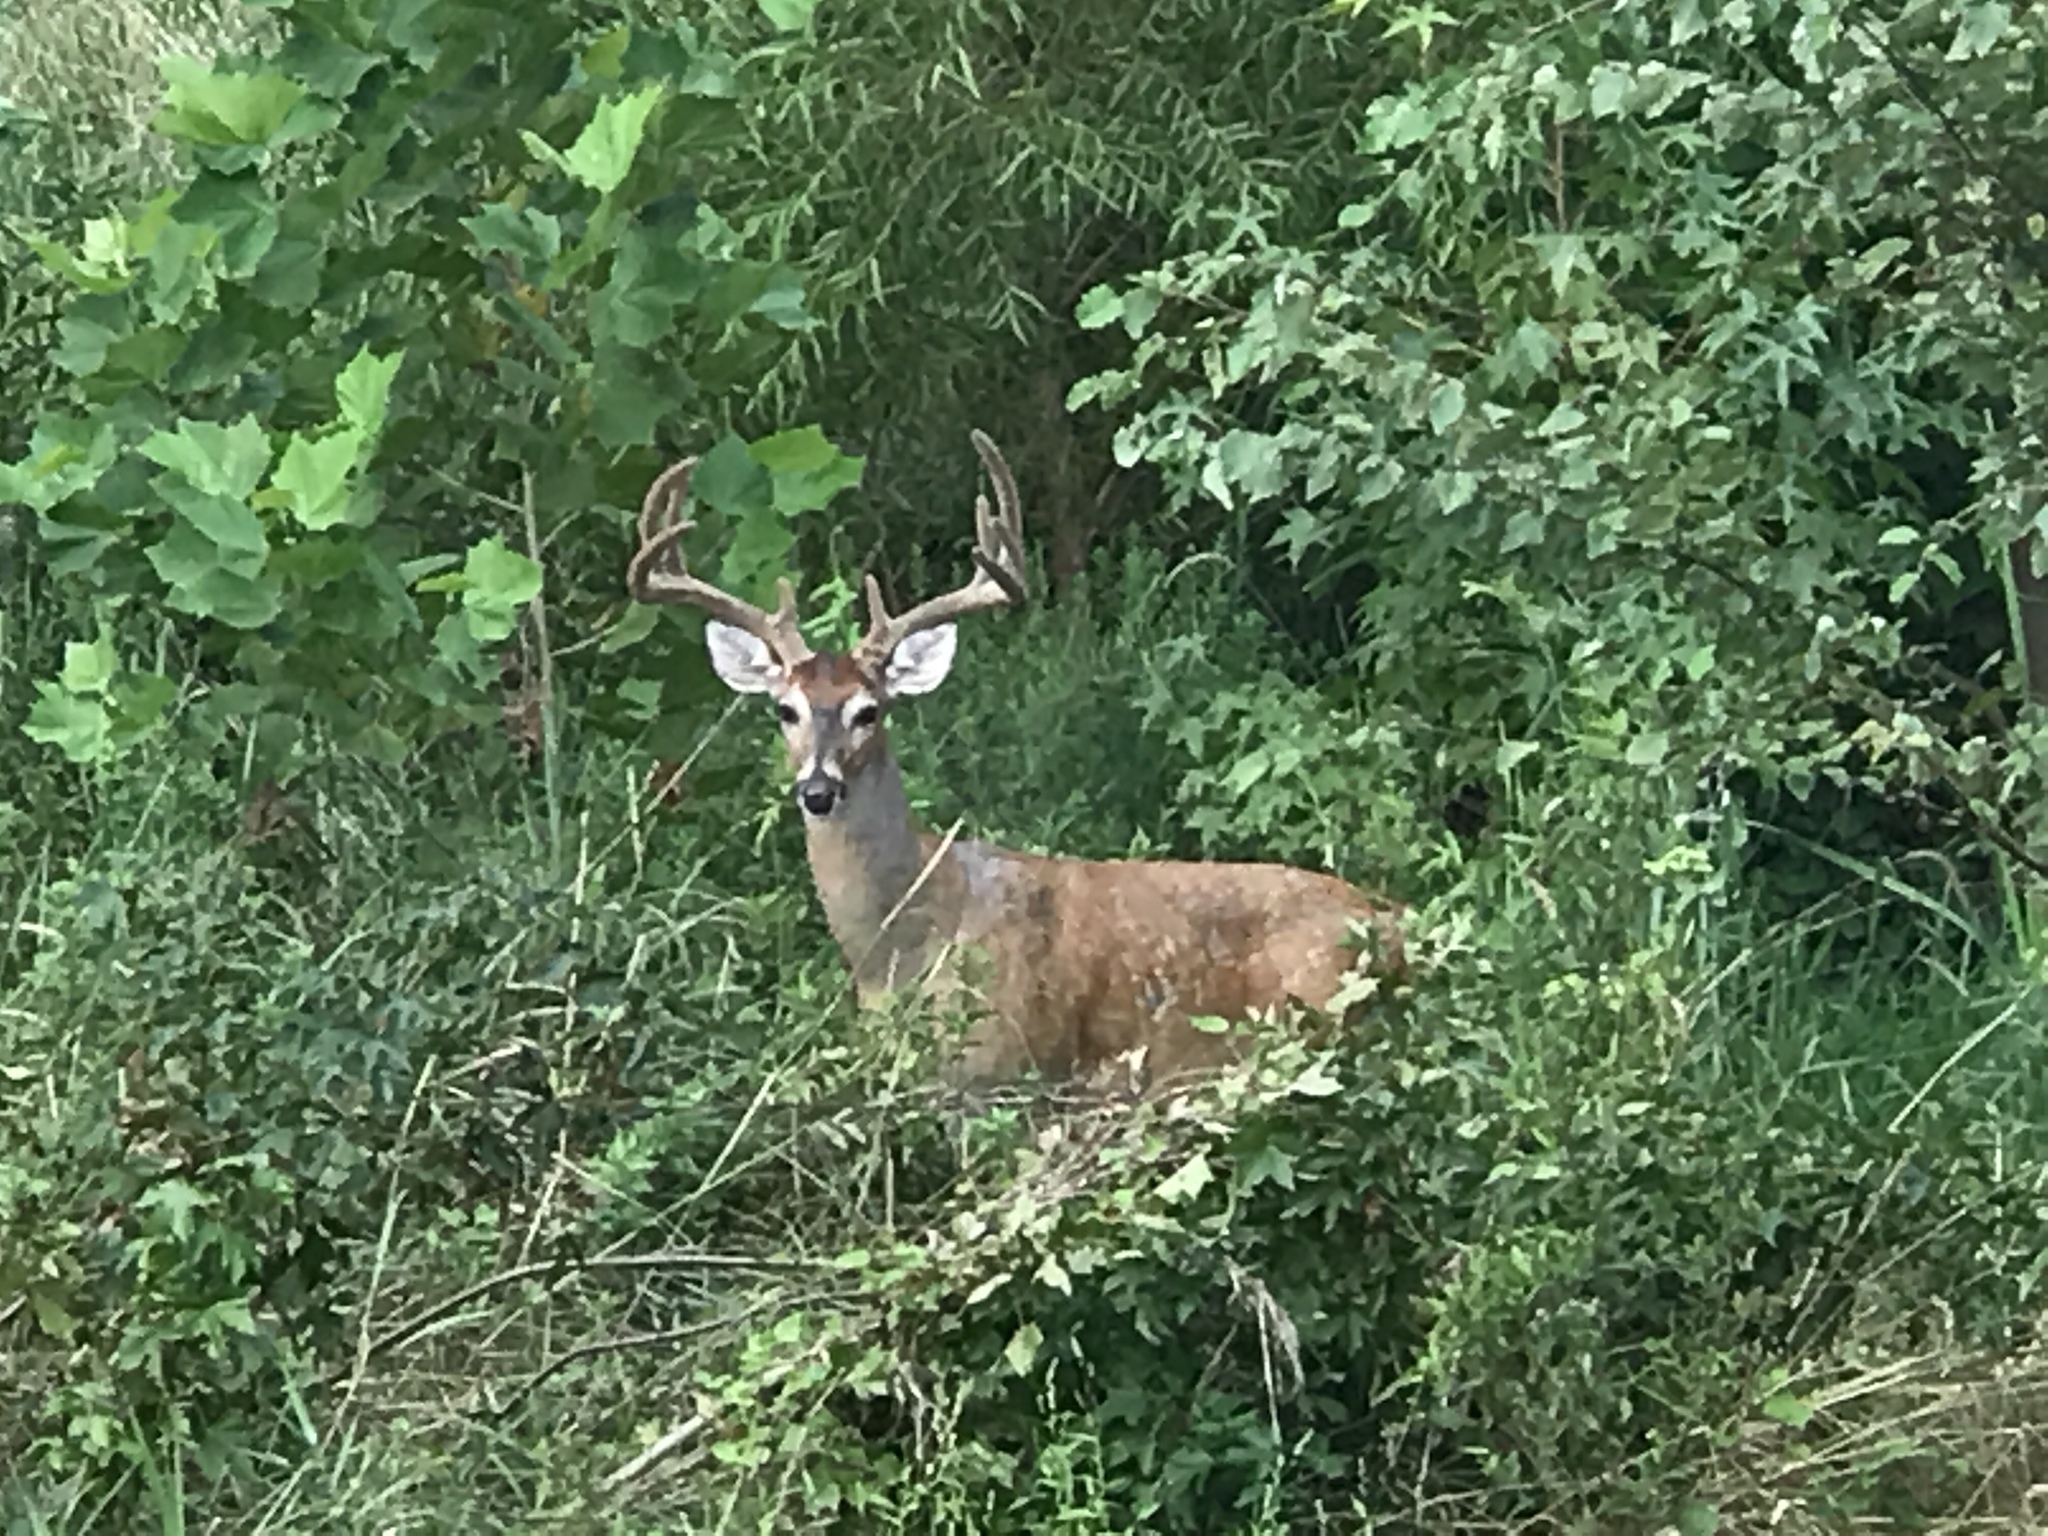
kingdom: Animalia
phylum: Chordata
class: Mammalia
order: Artiodactyla
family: Cervidae
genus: Odocoileus
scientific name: Odocoileus virginianus
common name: White-tailed deer
